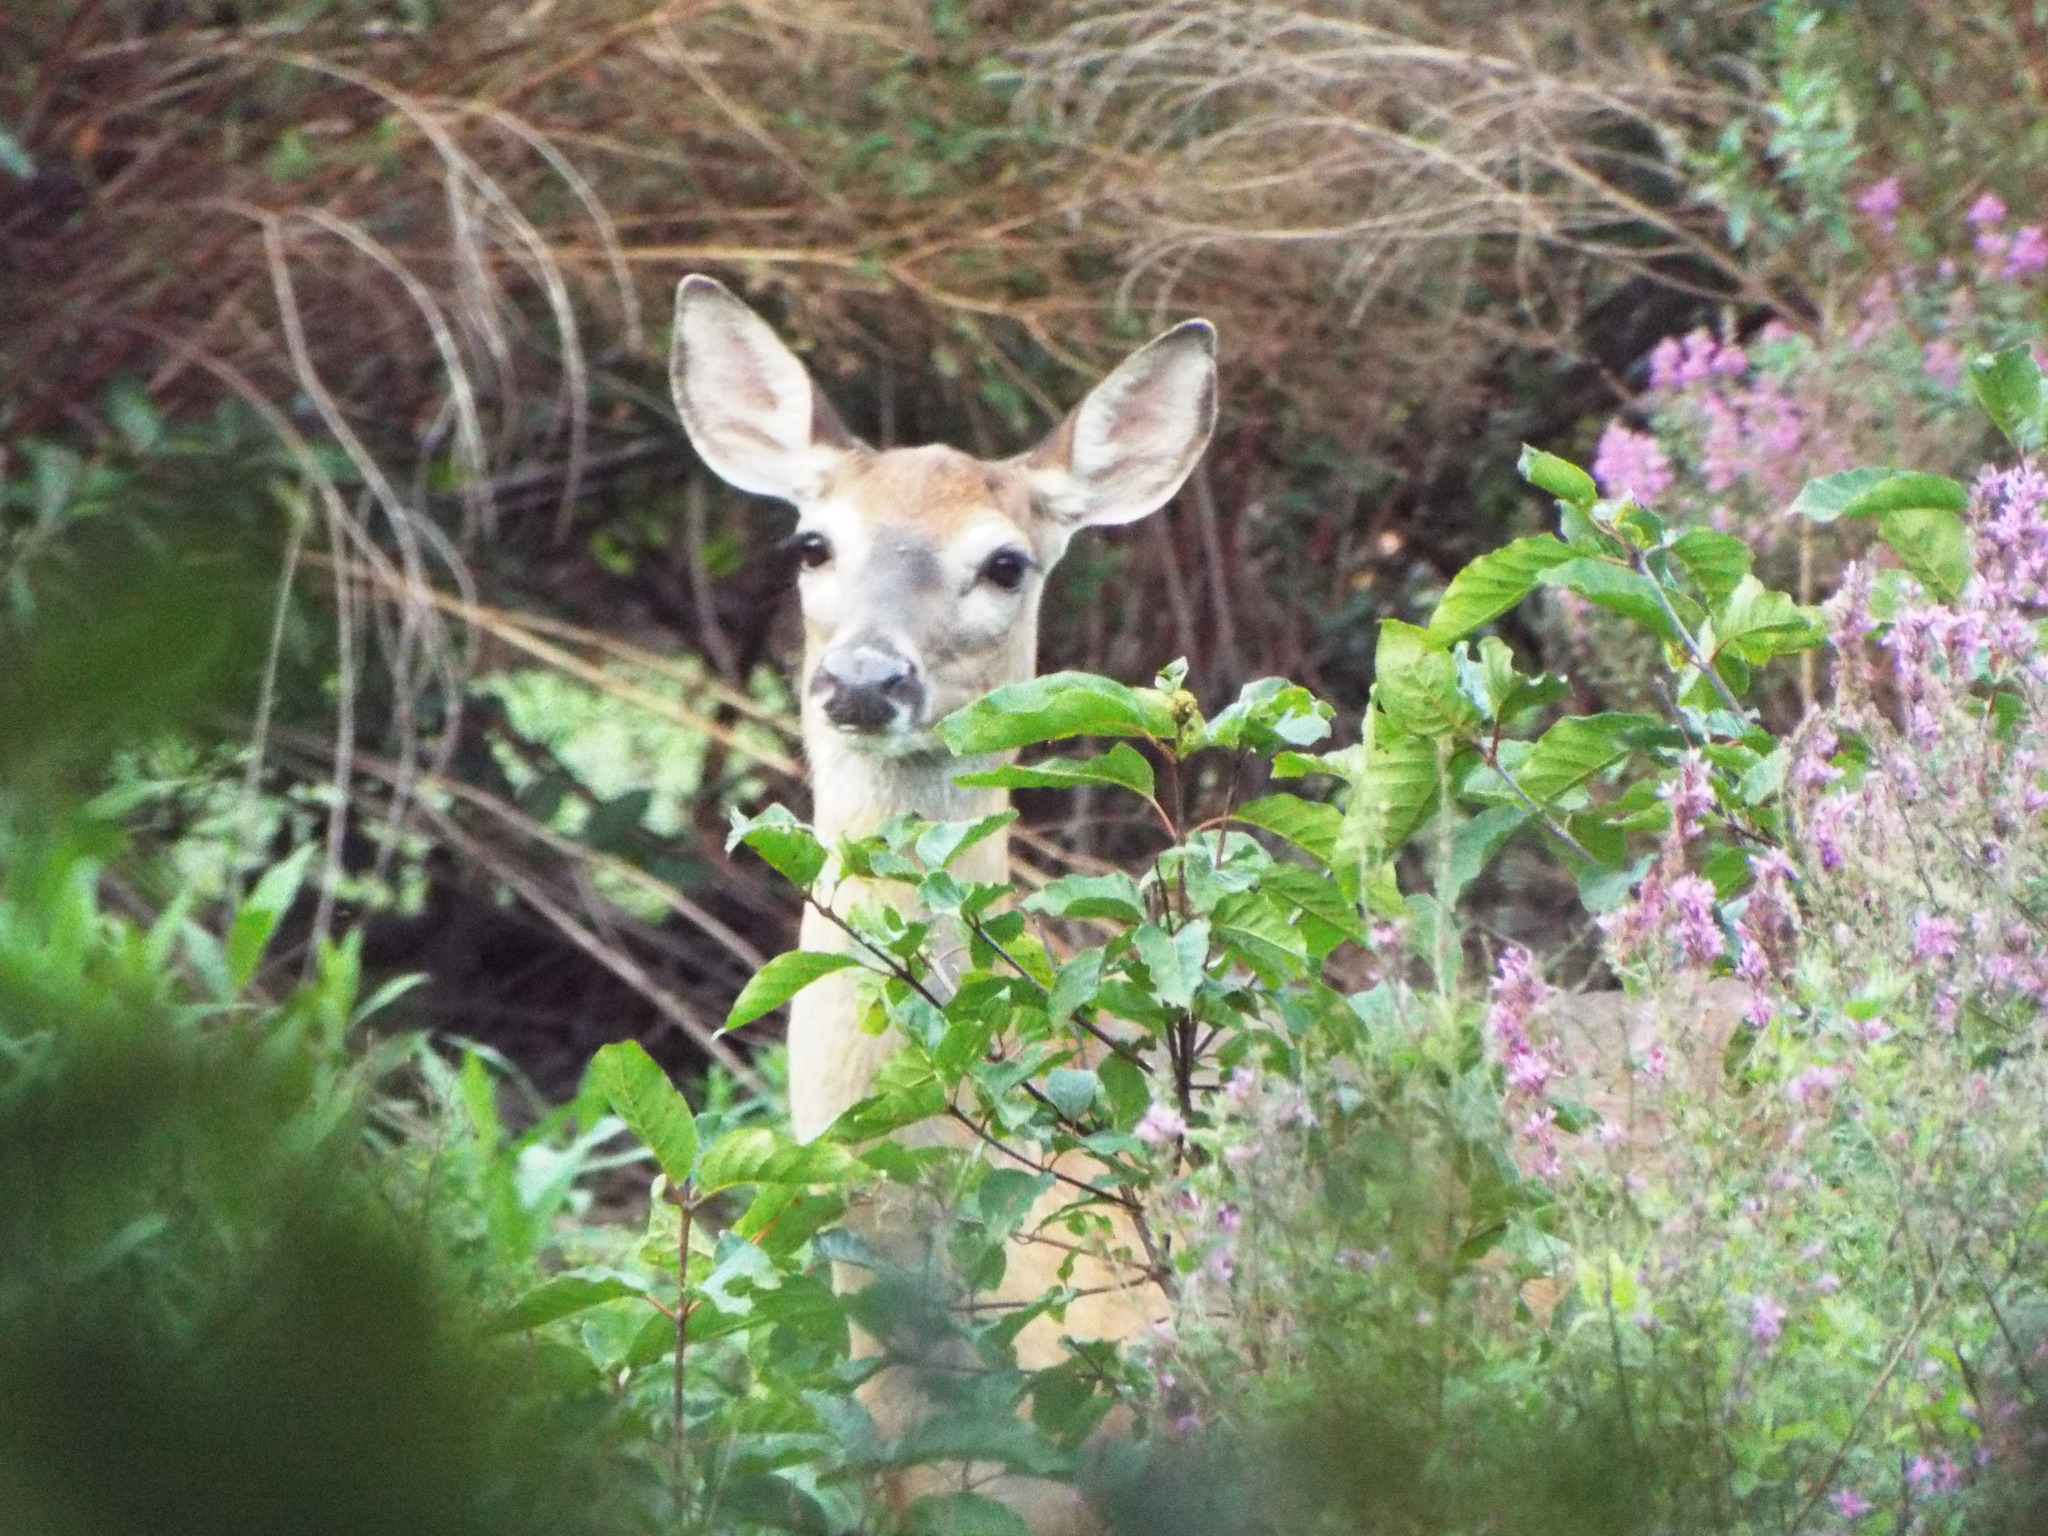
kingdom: Animalia
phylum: Chordata
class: Mammalia
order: Artiodactyla
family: Cervidae
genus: Odocoileus
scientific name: Odocoileus virginianus
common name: White-tailed deer
